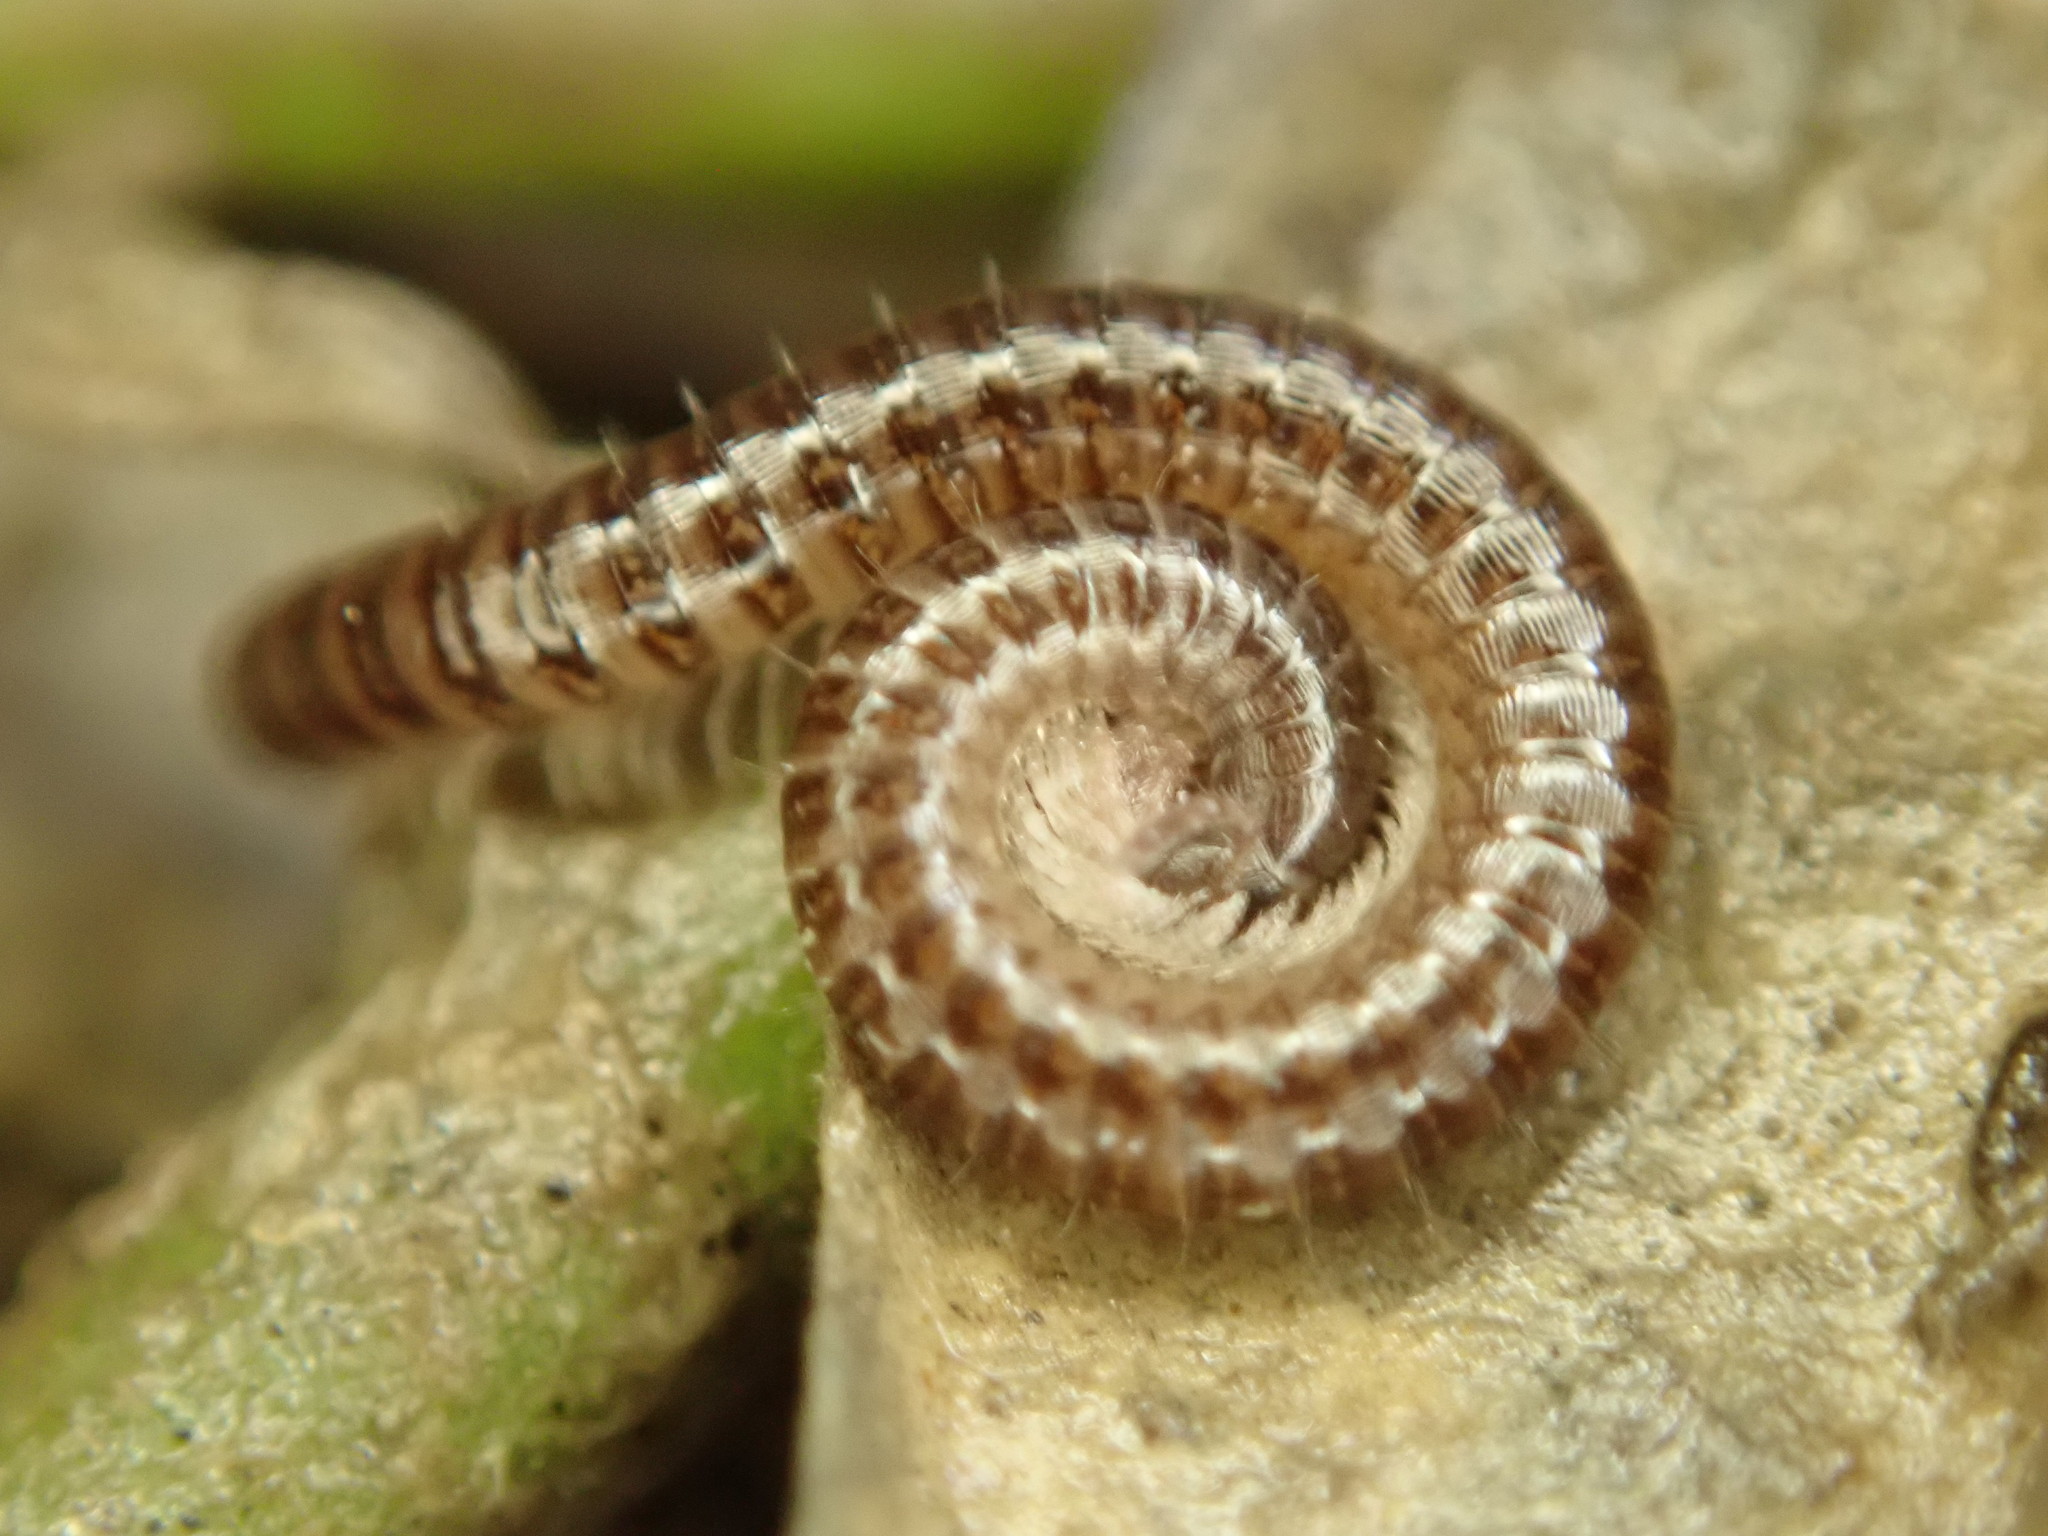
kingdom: Animalia
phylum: Arthropoda
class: Diplopoda
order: Julida
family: Julidae
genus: Ophyiulus
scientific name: Ophyiulus pilosus
